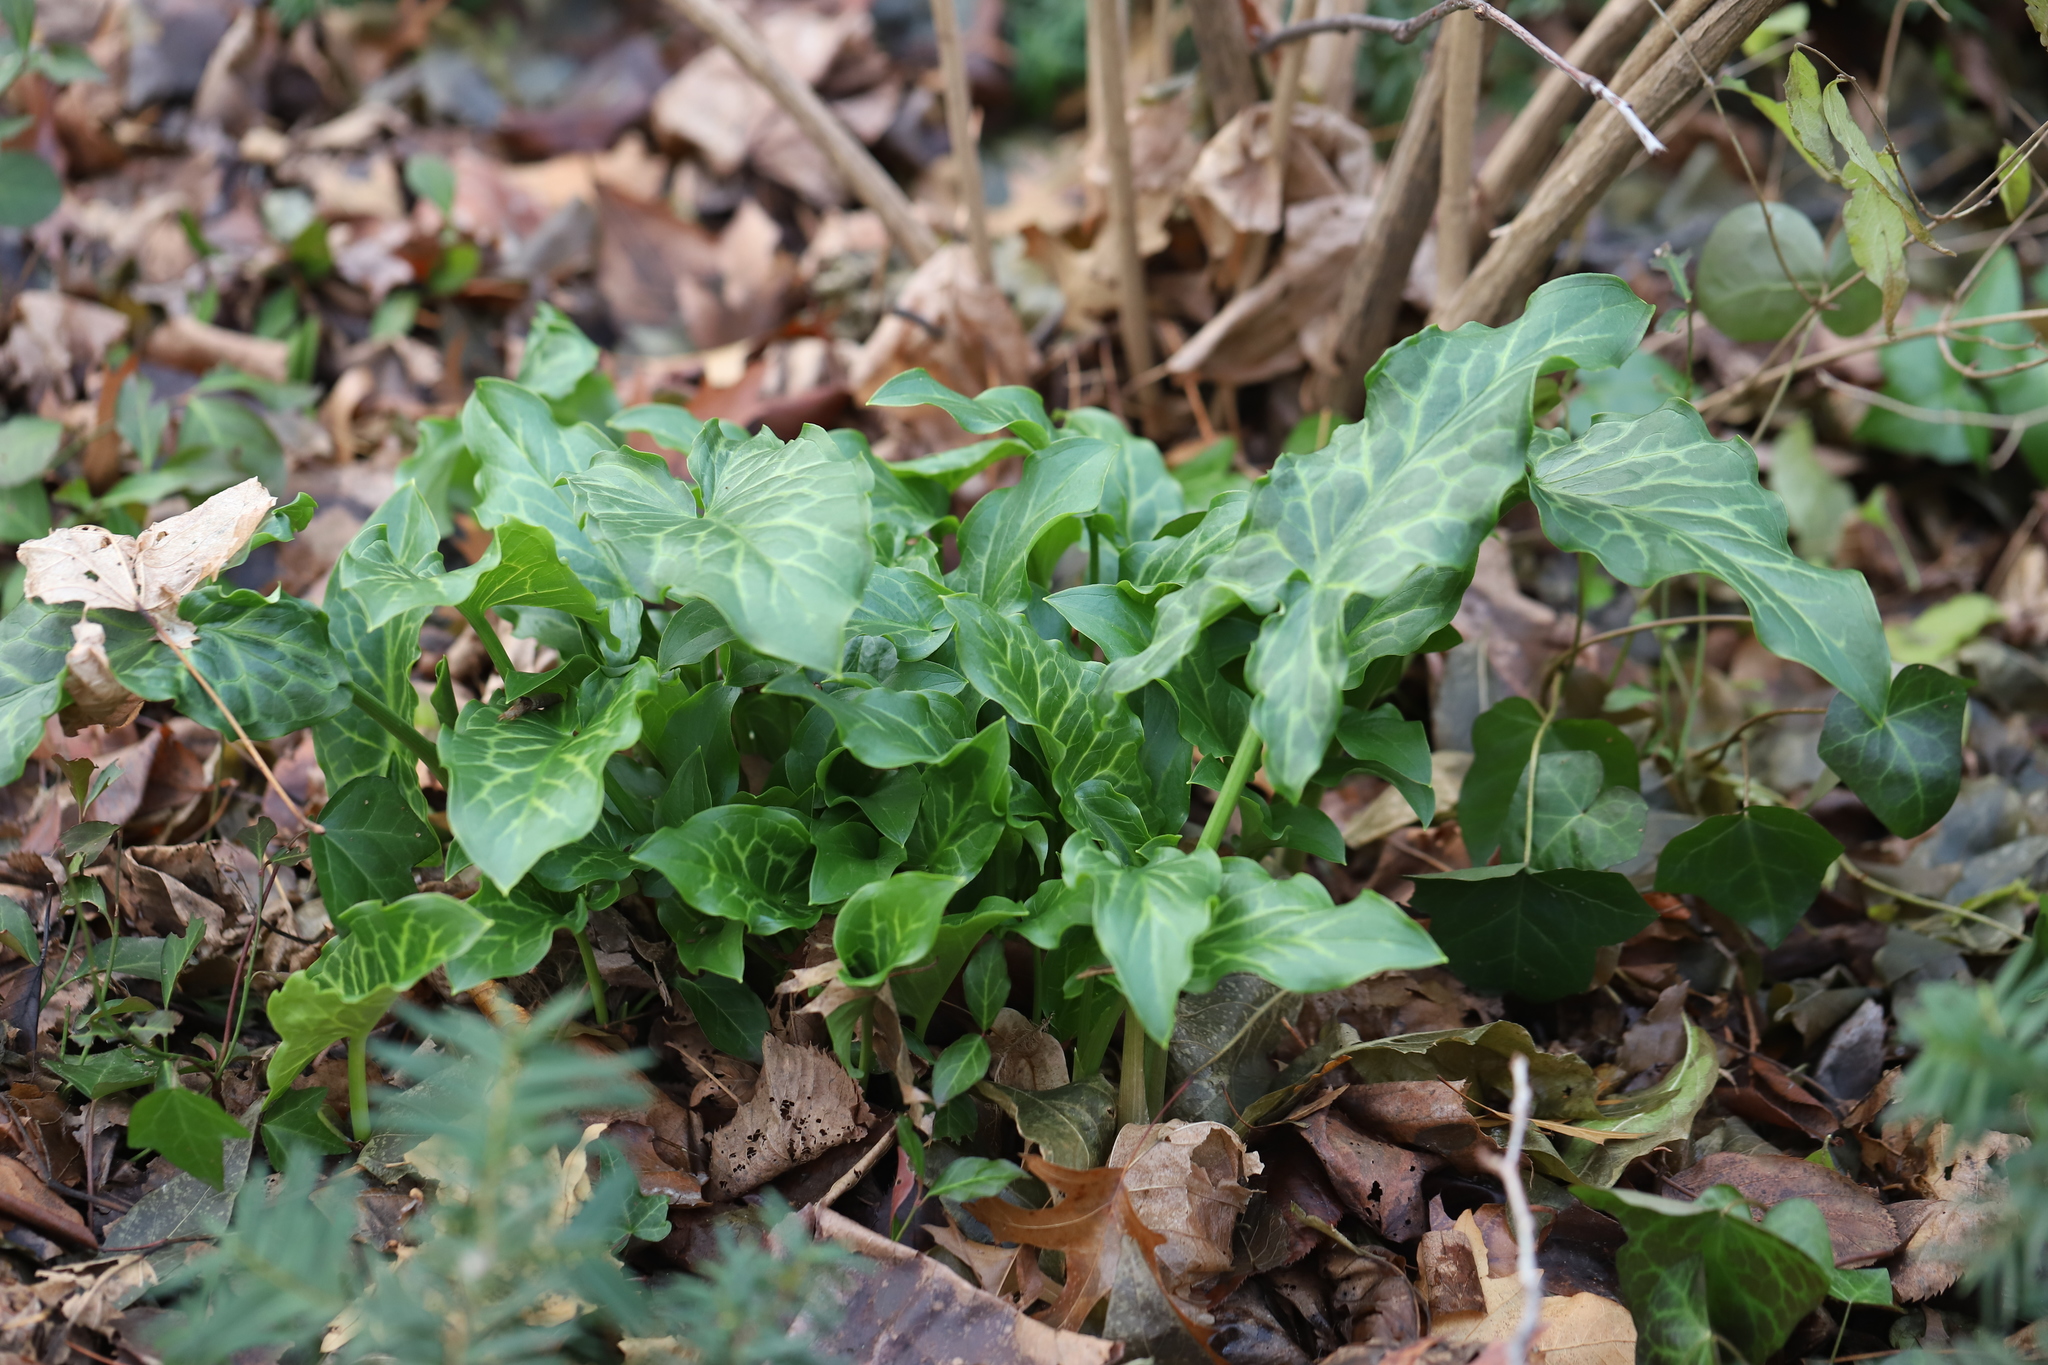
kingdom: Plantae
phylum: Tracheophyta
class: Liliopsida
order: Alismatales
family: Araceae
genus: Arum
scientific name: Arum italicum
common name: Italian lords-and-ladies
